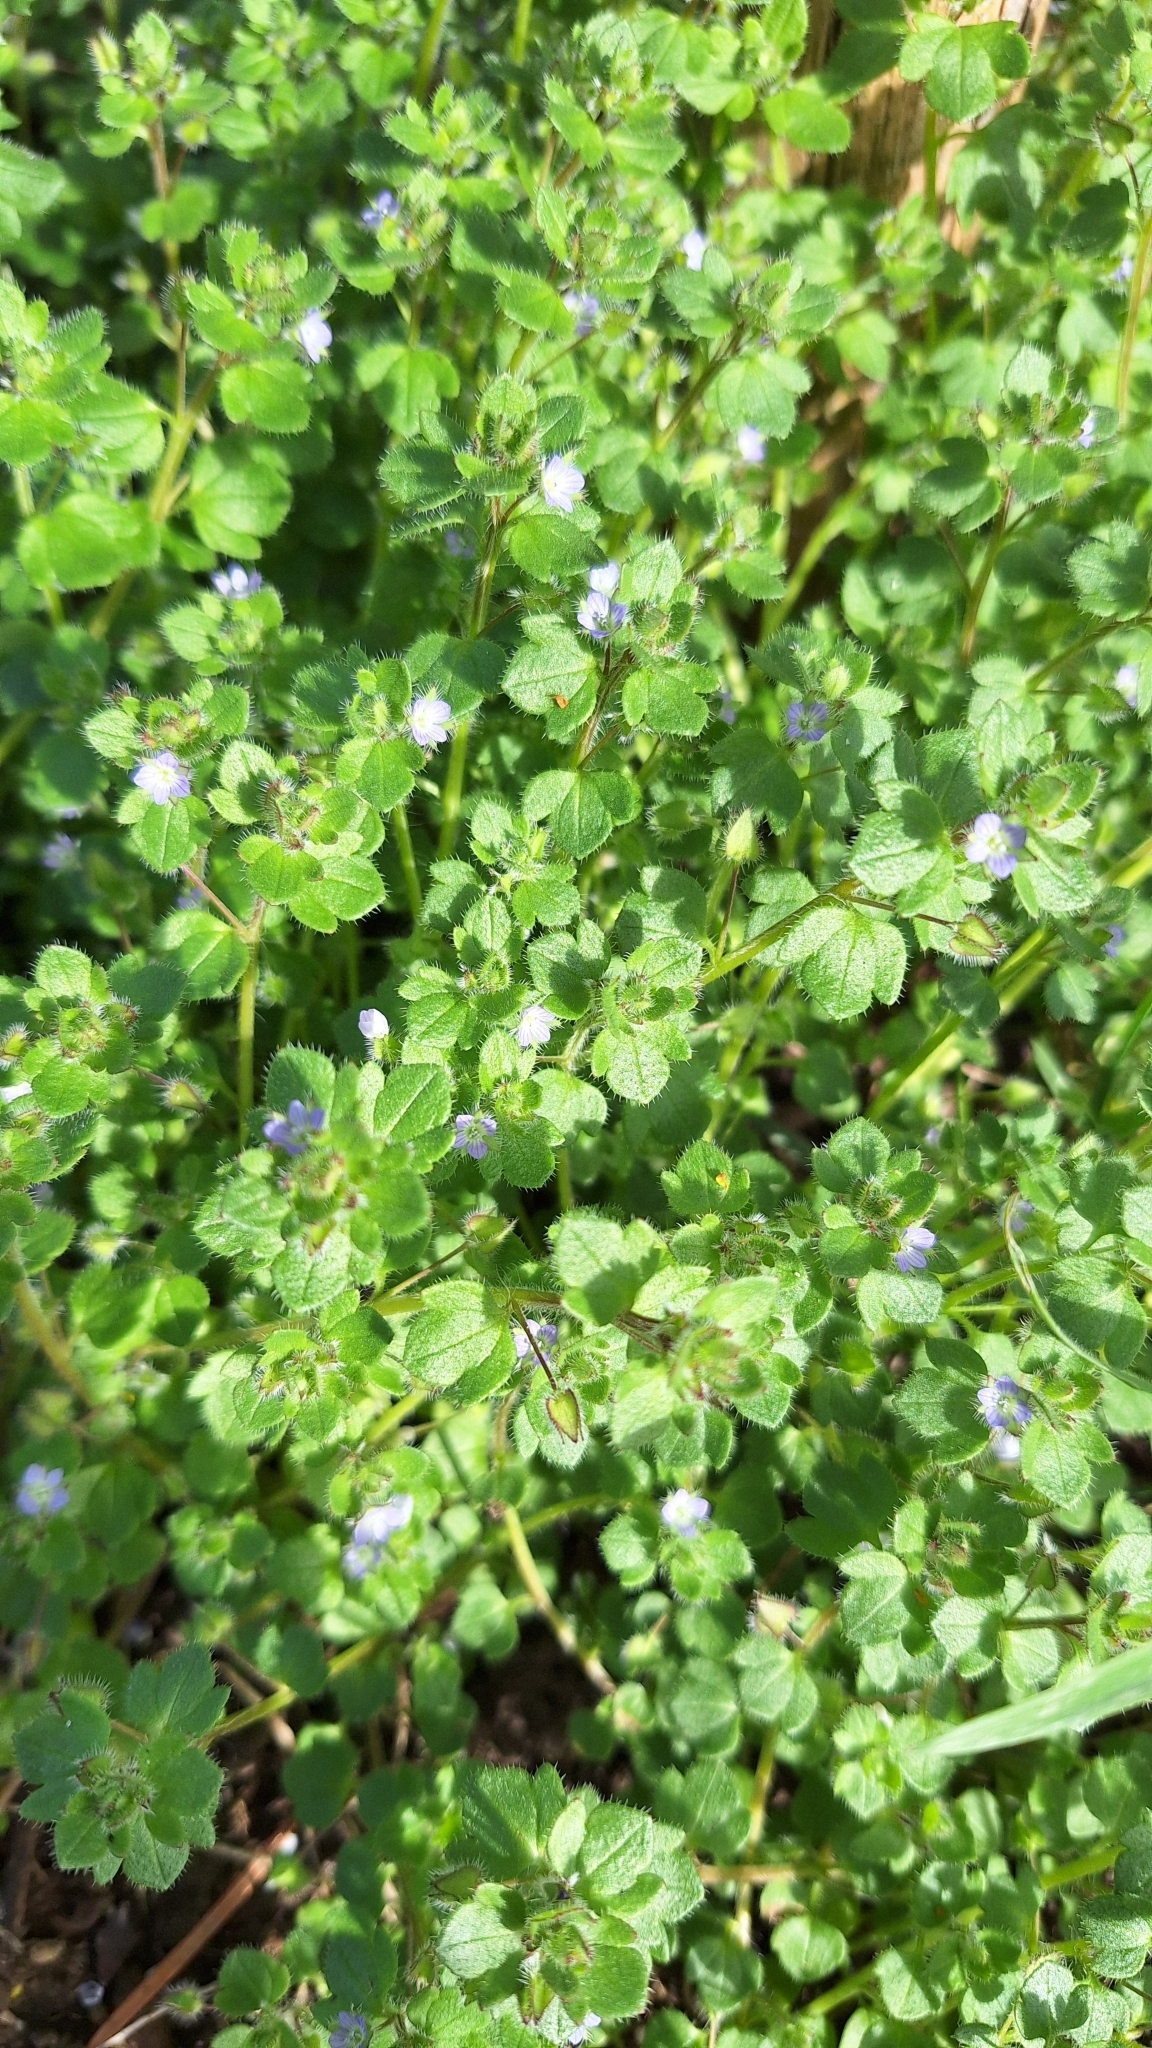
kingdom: Plantae
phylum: Tracheophyta
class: Magnoliopsida
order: Lamiales
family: Plantaginaceae
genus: Veronica
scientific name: Veronica hederifolia
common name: Ivy-leaved speedwell
